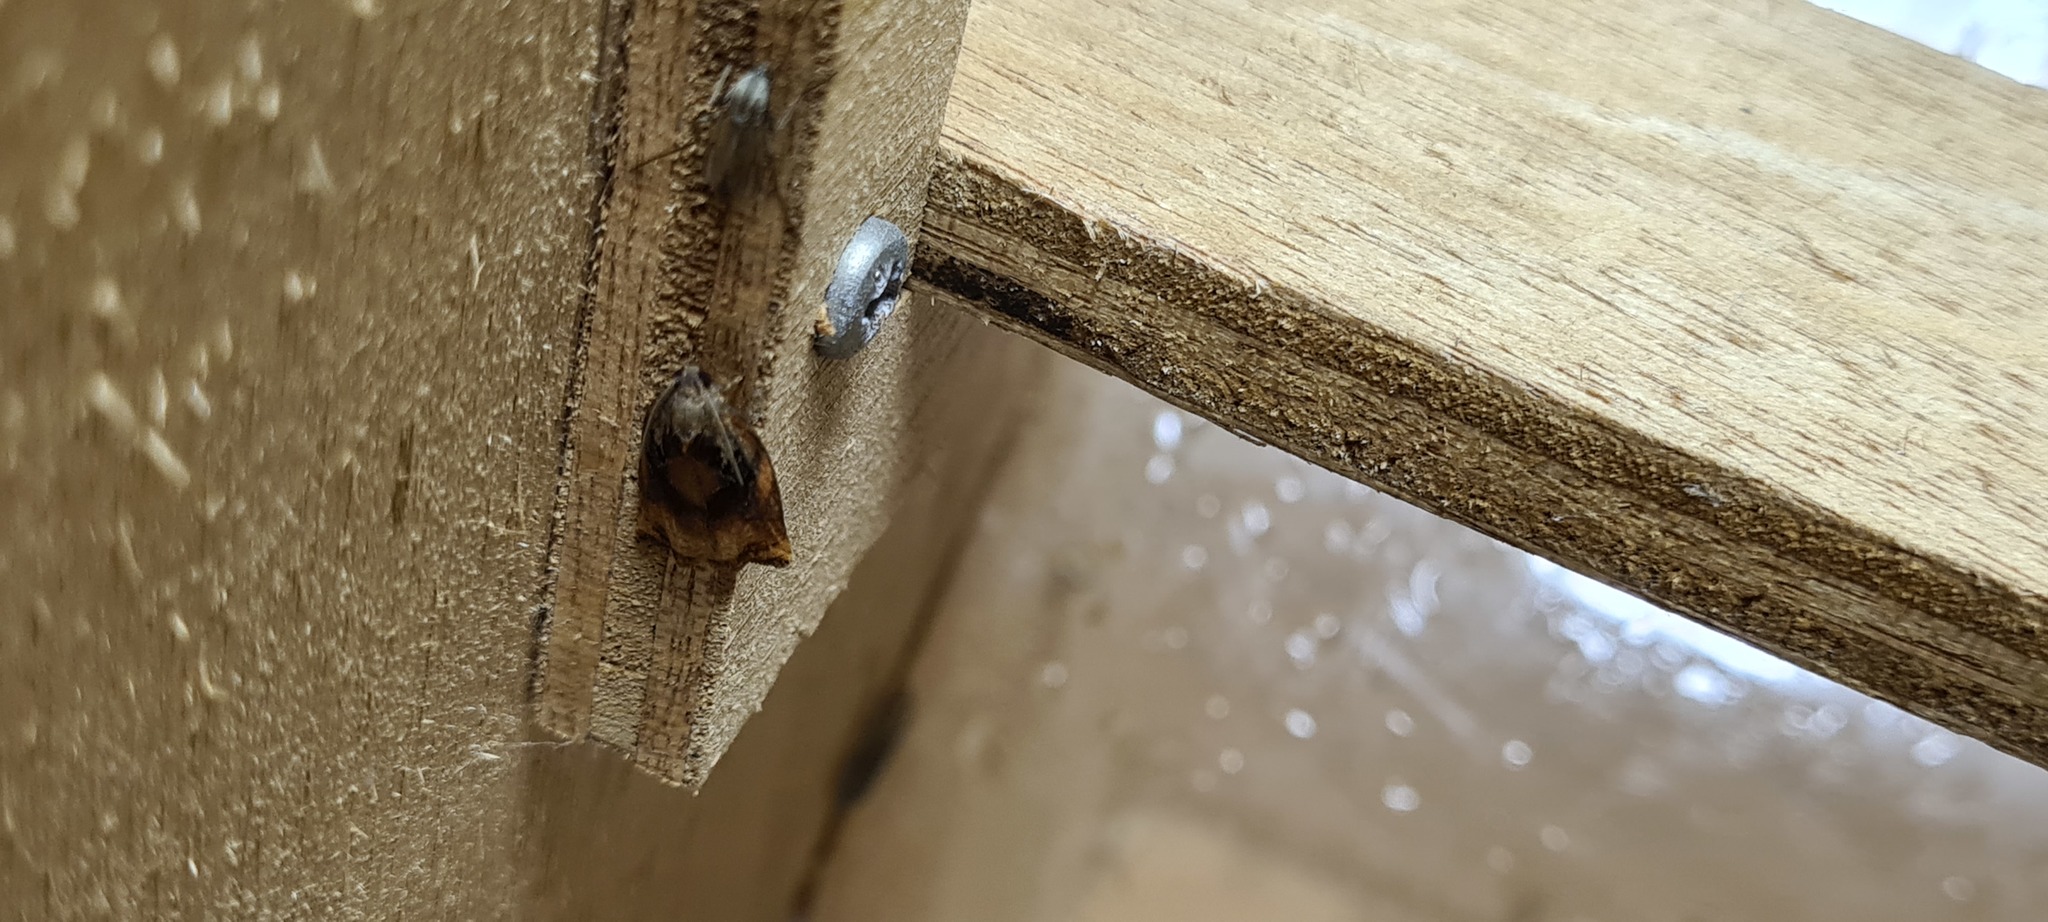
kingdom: Animalia
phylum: Arthropoda
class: Insecta
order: Lepidoptera
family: Tortricidae
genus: Archips
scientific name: Archips podana
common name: Large fruit-tree tortrix
